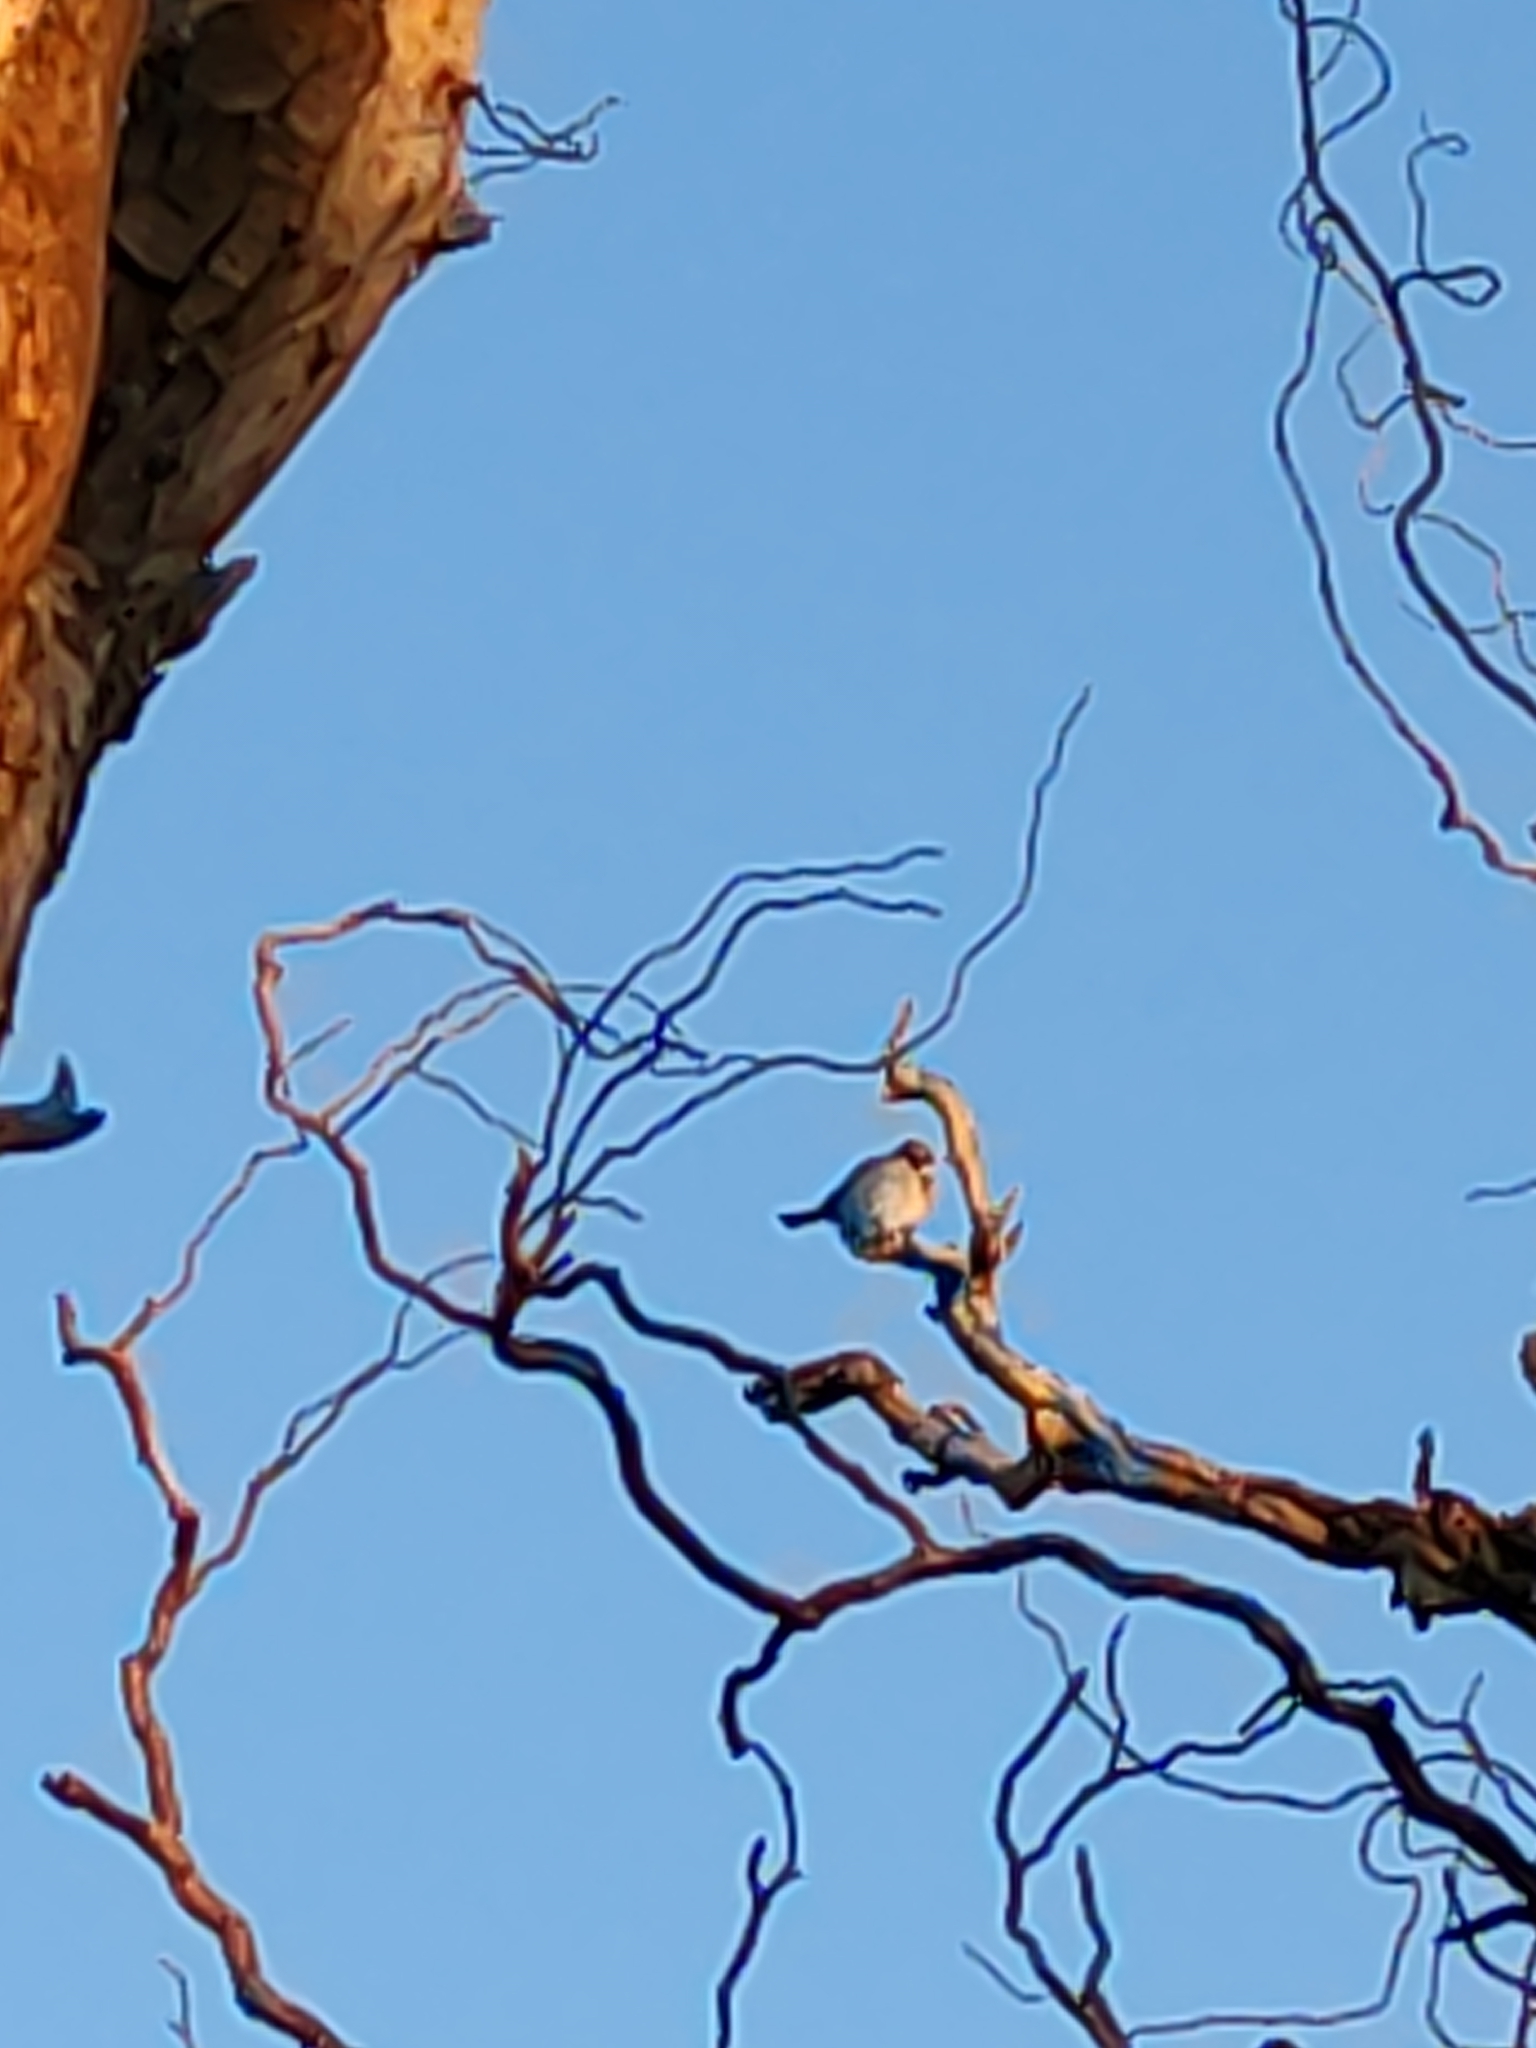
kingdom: Animalia
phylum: Chordata
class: Aves
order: Passeriformes
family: Passeridae
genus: Passer
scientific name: Passer domesticus
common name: House sparrow
